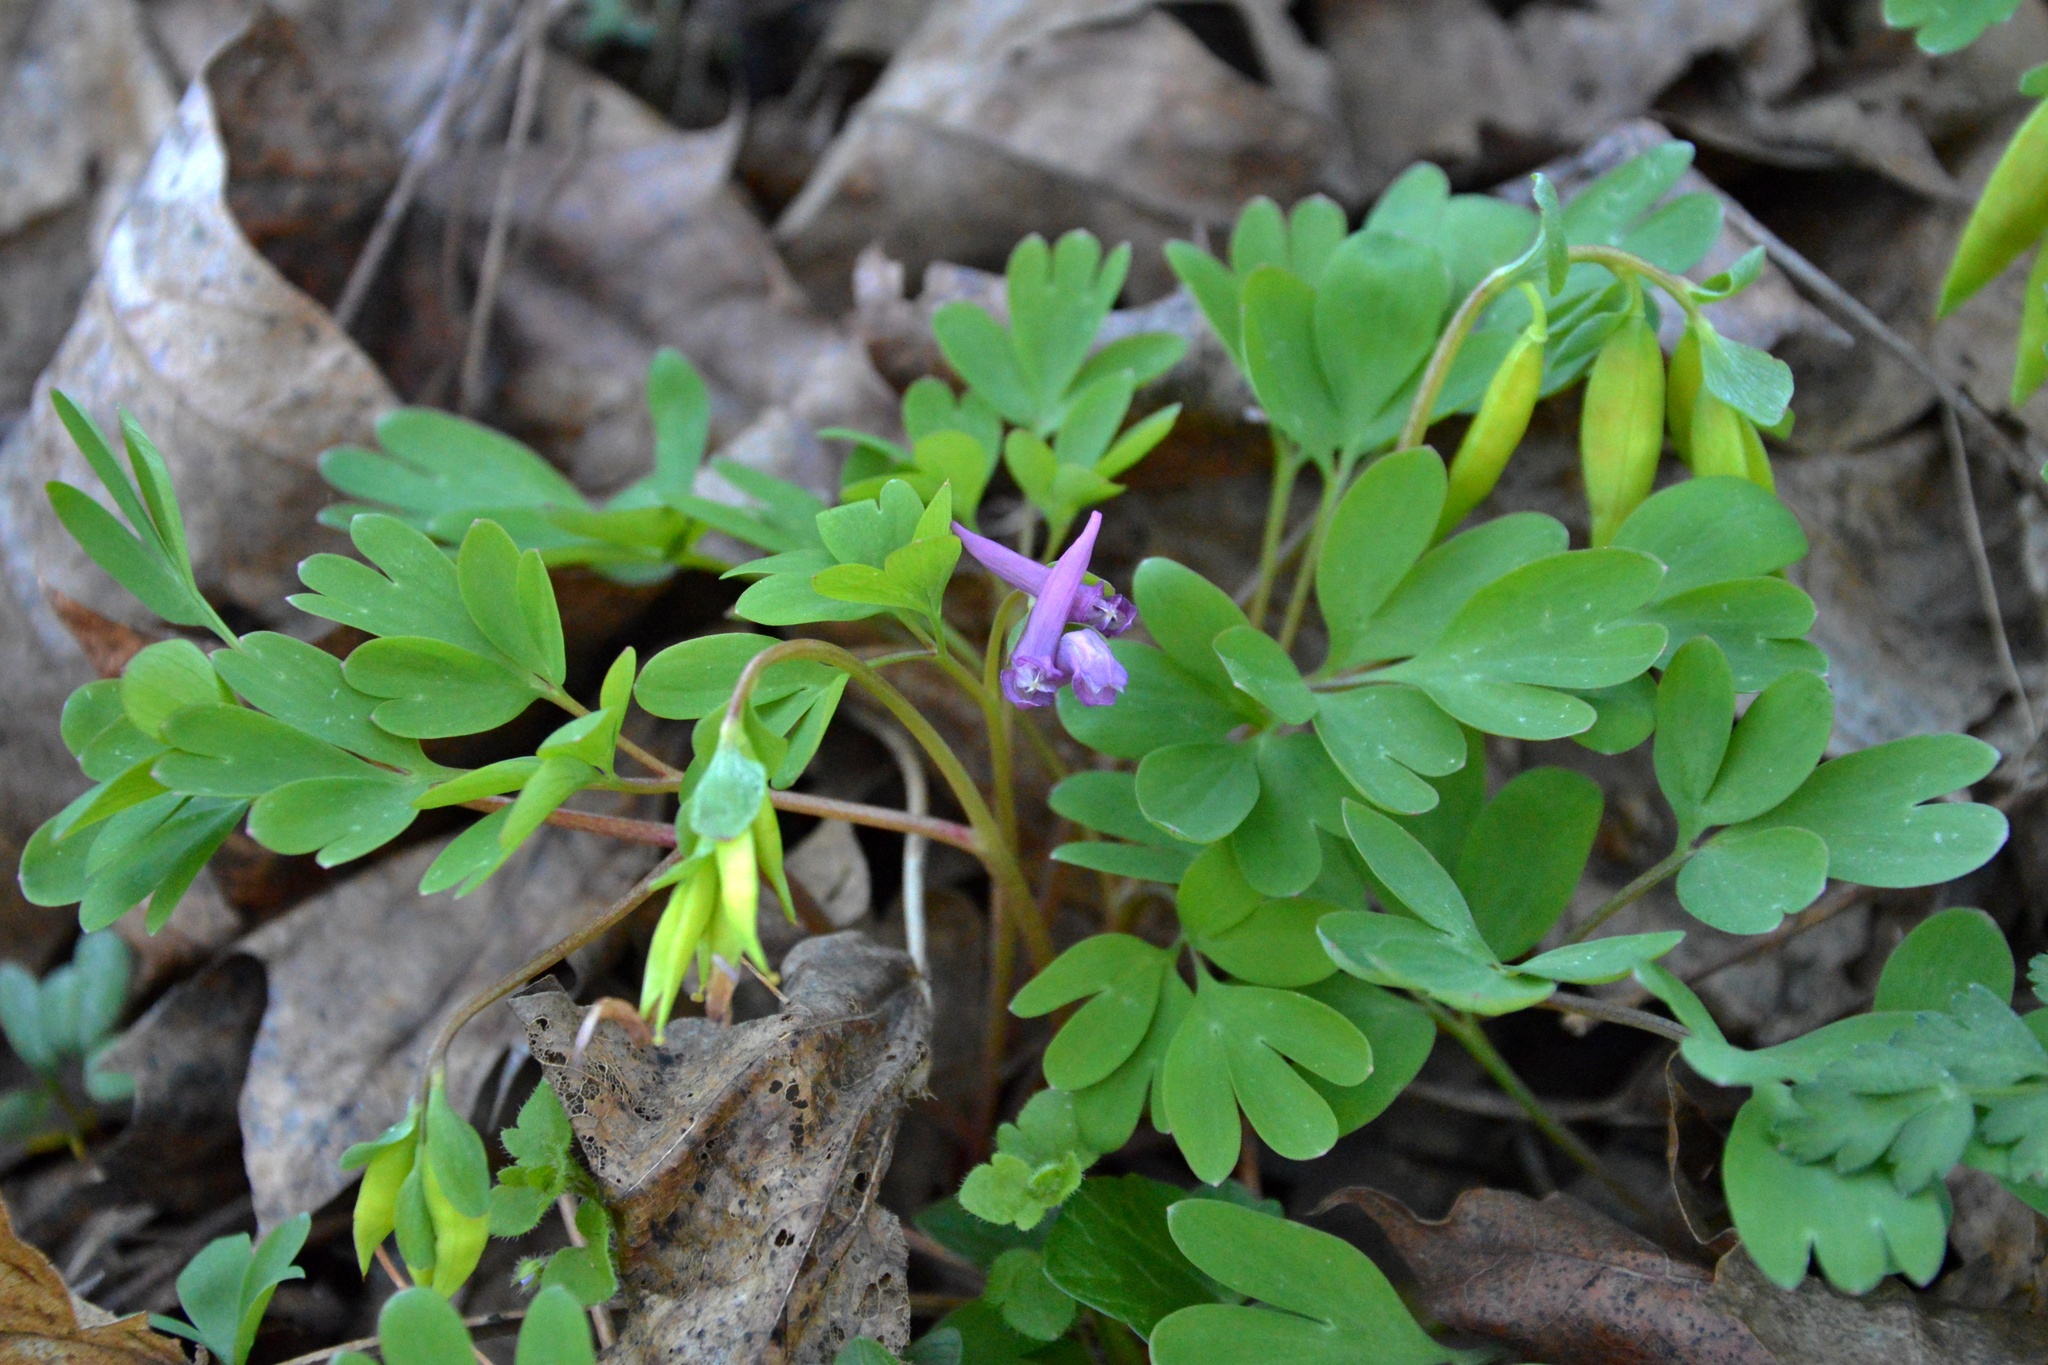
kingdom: Plantae
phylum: Tracheophyta
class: Magnoliopsida
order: Ranunculales
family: Papaveraceae
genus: Corydalis
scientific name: Corydalis intermedia
